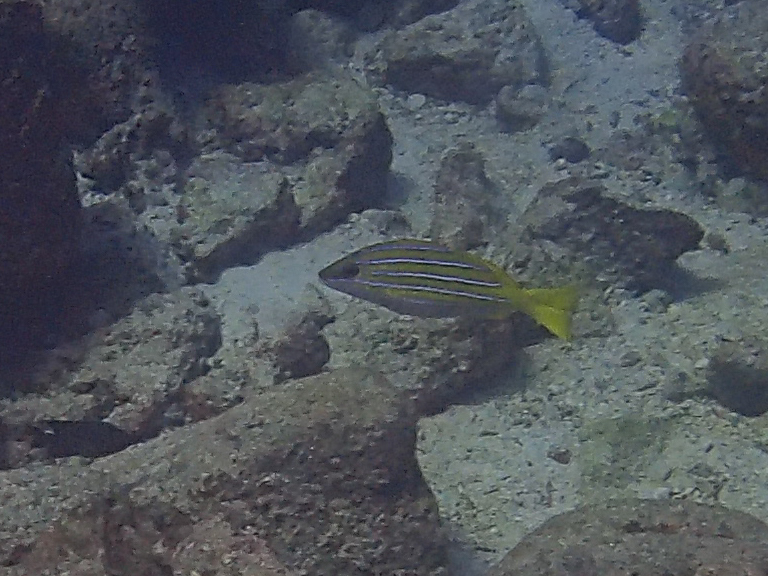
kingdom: Animalia
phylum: Chordata
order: Perciformes
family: Lutjanidae
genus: Lutjanus
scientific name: Lutjanus viridis
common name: Blue and gold snapper
